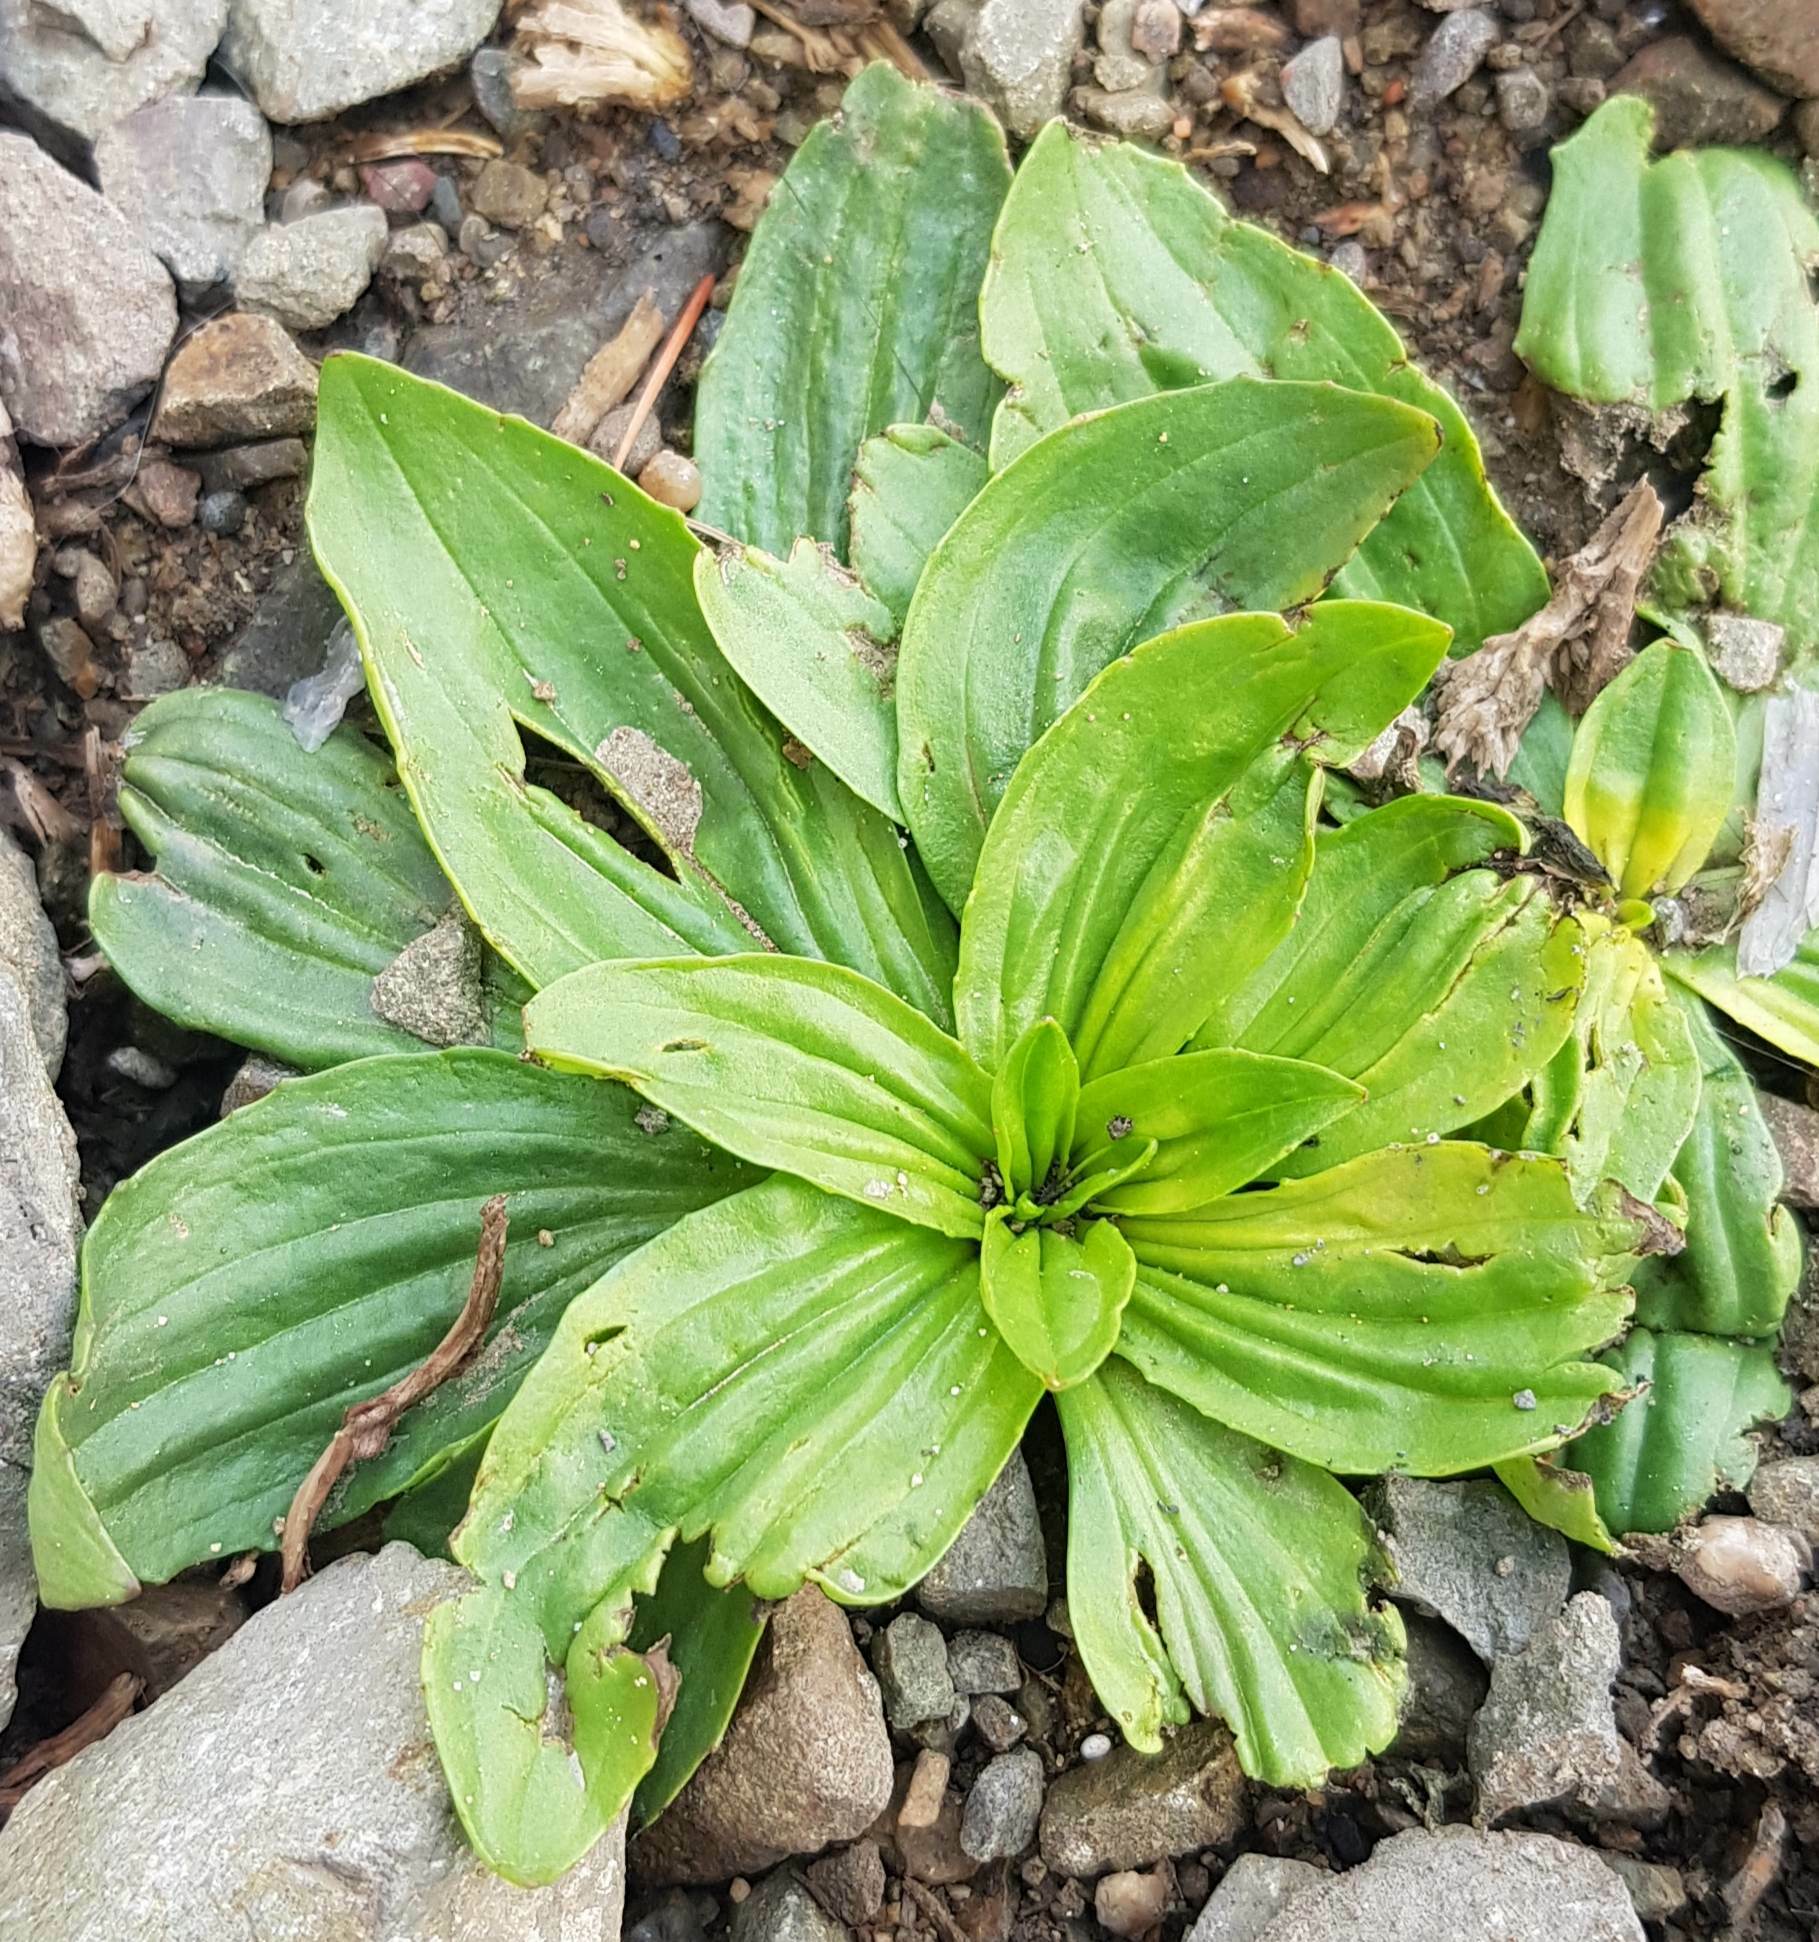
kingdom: Plantae
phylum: Tracheophyta
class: Magnoliopsida
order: Lamiales
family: Plantaginaceae
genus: Plantago
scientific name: Plantago depressa
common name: Depressed plantain
